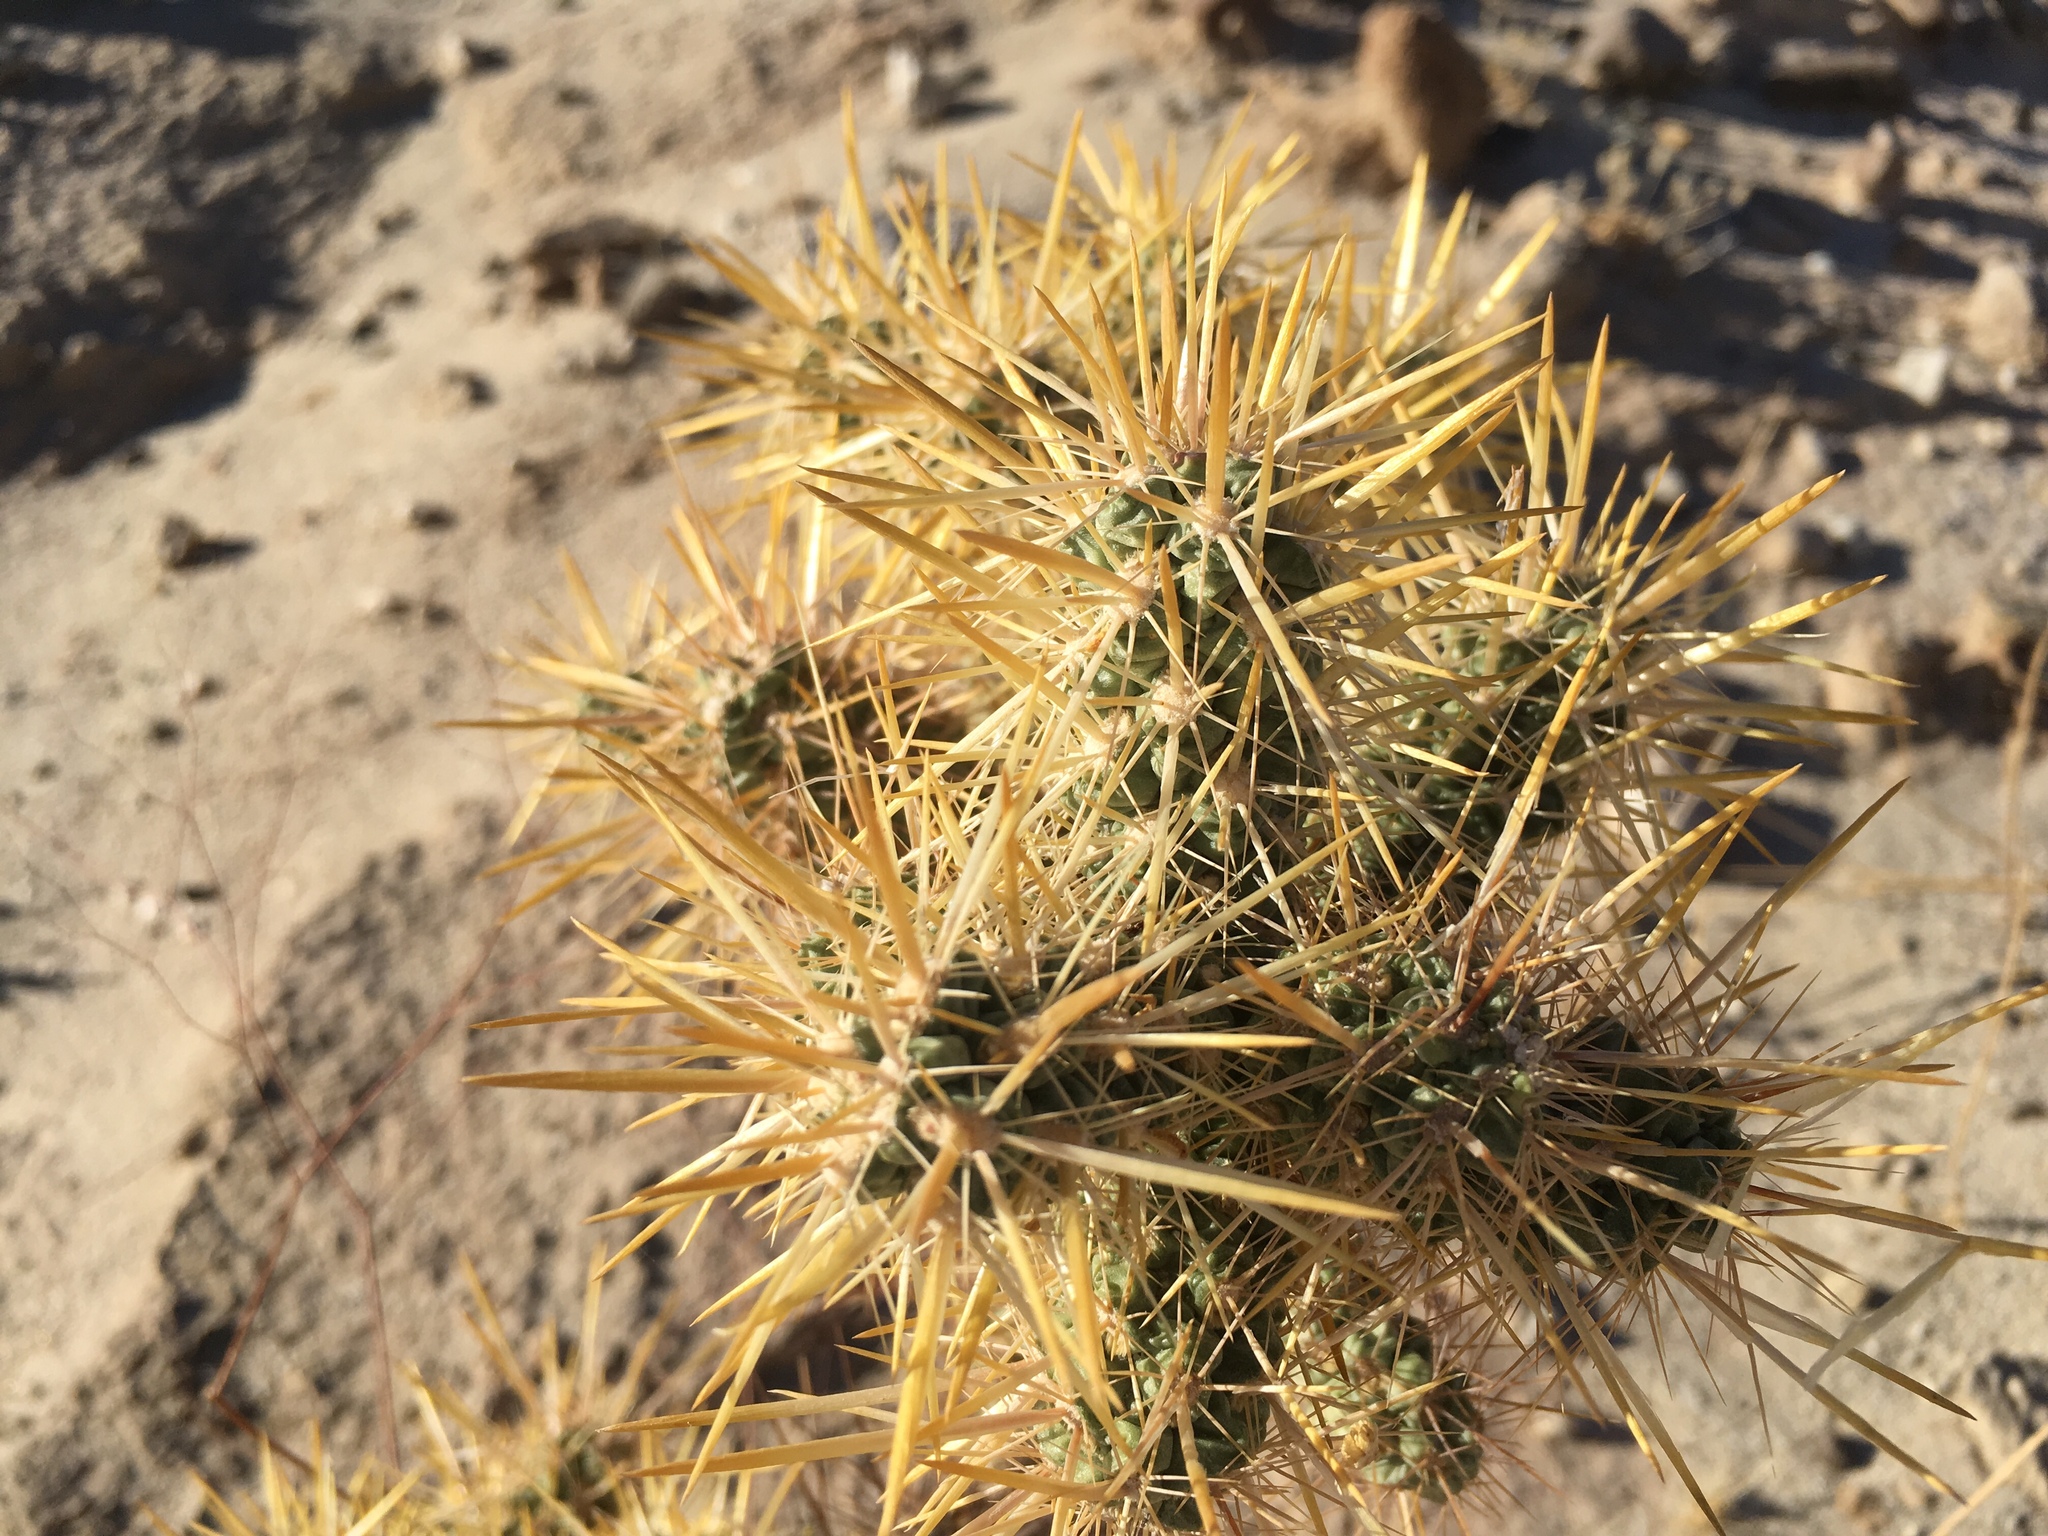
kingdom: Plantae
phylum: Tracheophyta
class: Magnoliopsida
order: Caryophyllales
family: Cactaceae
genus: Cylindropuntia
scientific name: Cylindropuntia echinocarpa
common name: Ground cholla
